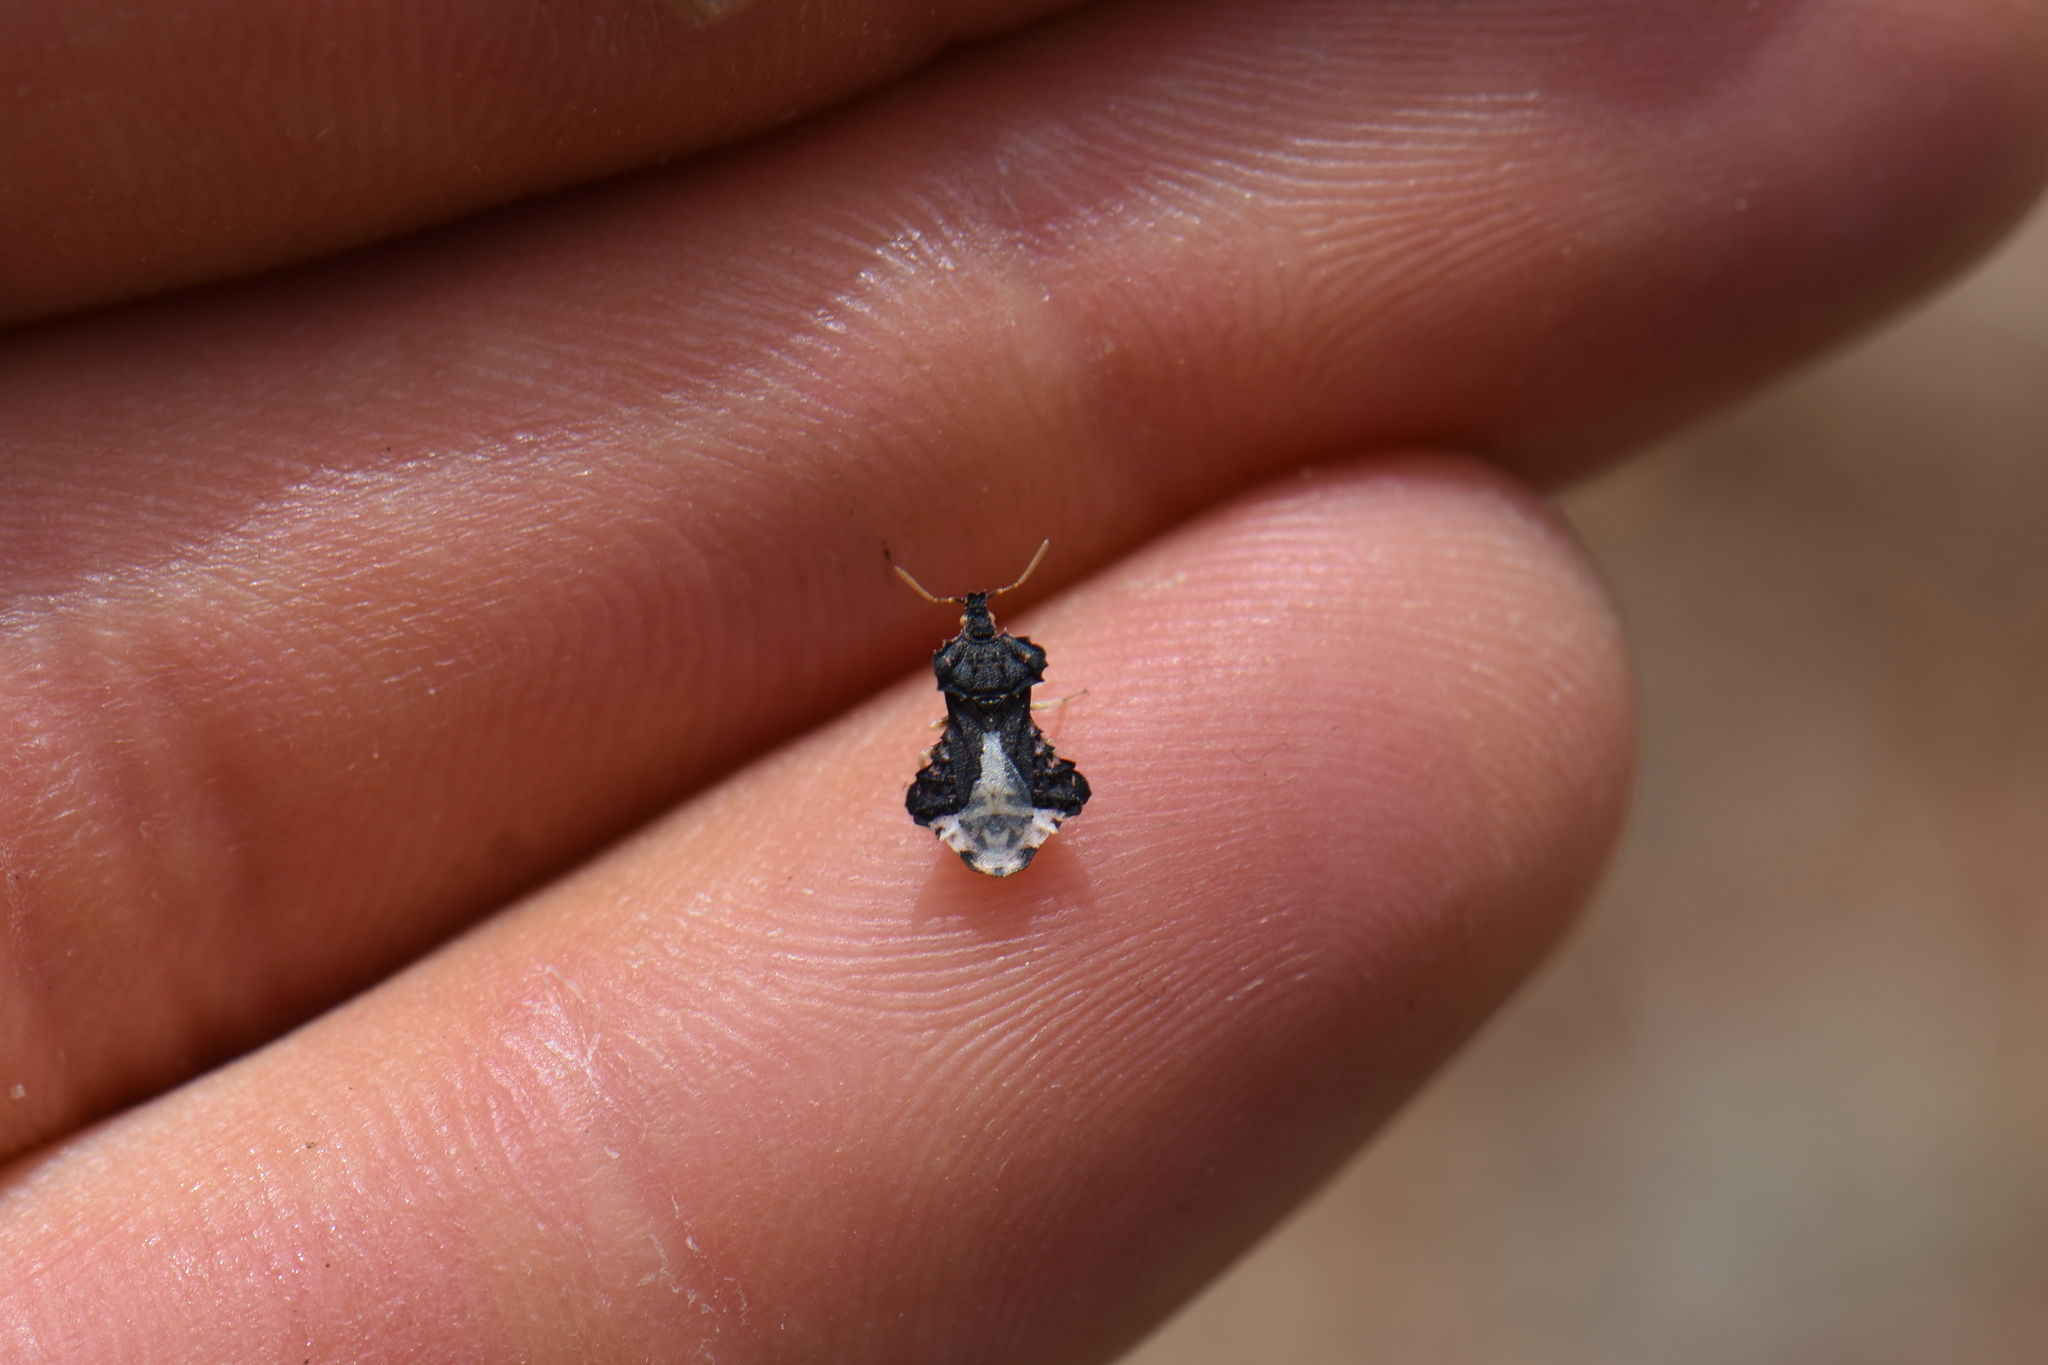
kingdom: Animalia
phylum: Arthropoda
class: Insecta
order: Hemiptera
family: Reduviidae
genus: Phymata
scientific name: Phymata monstrosa
